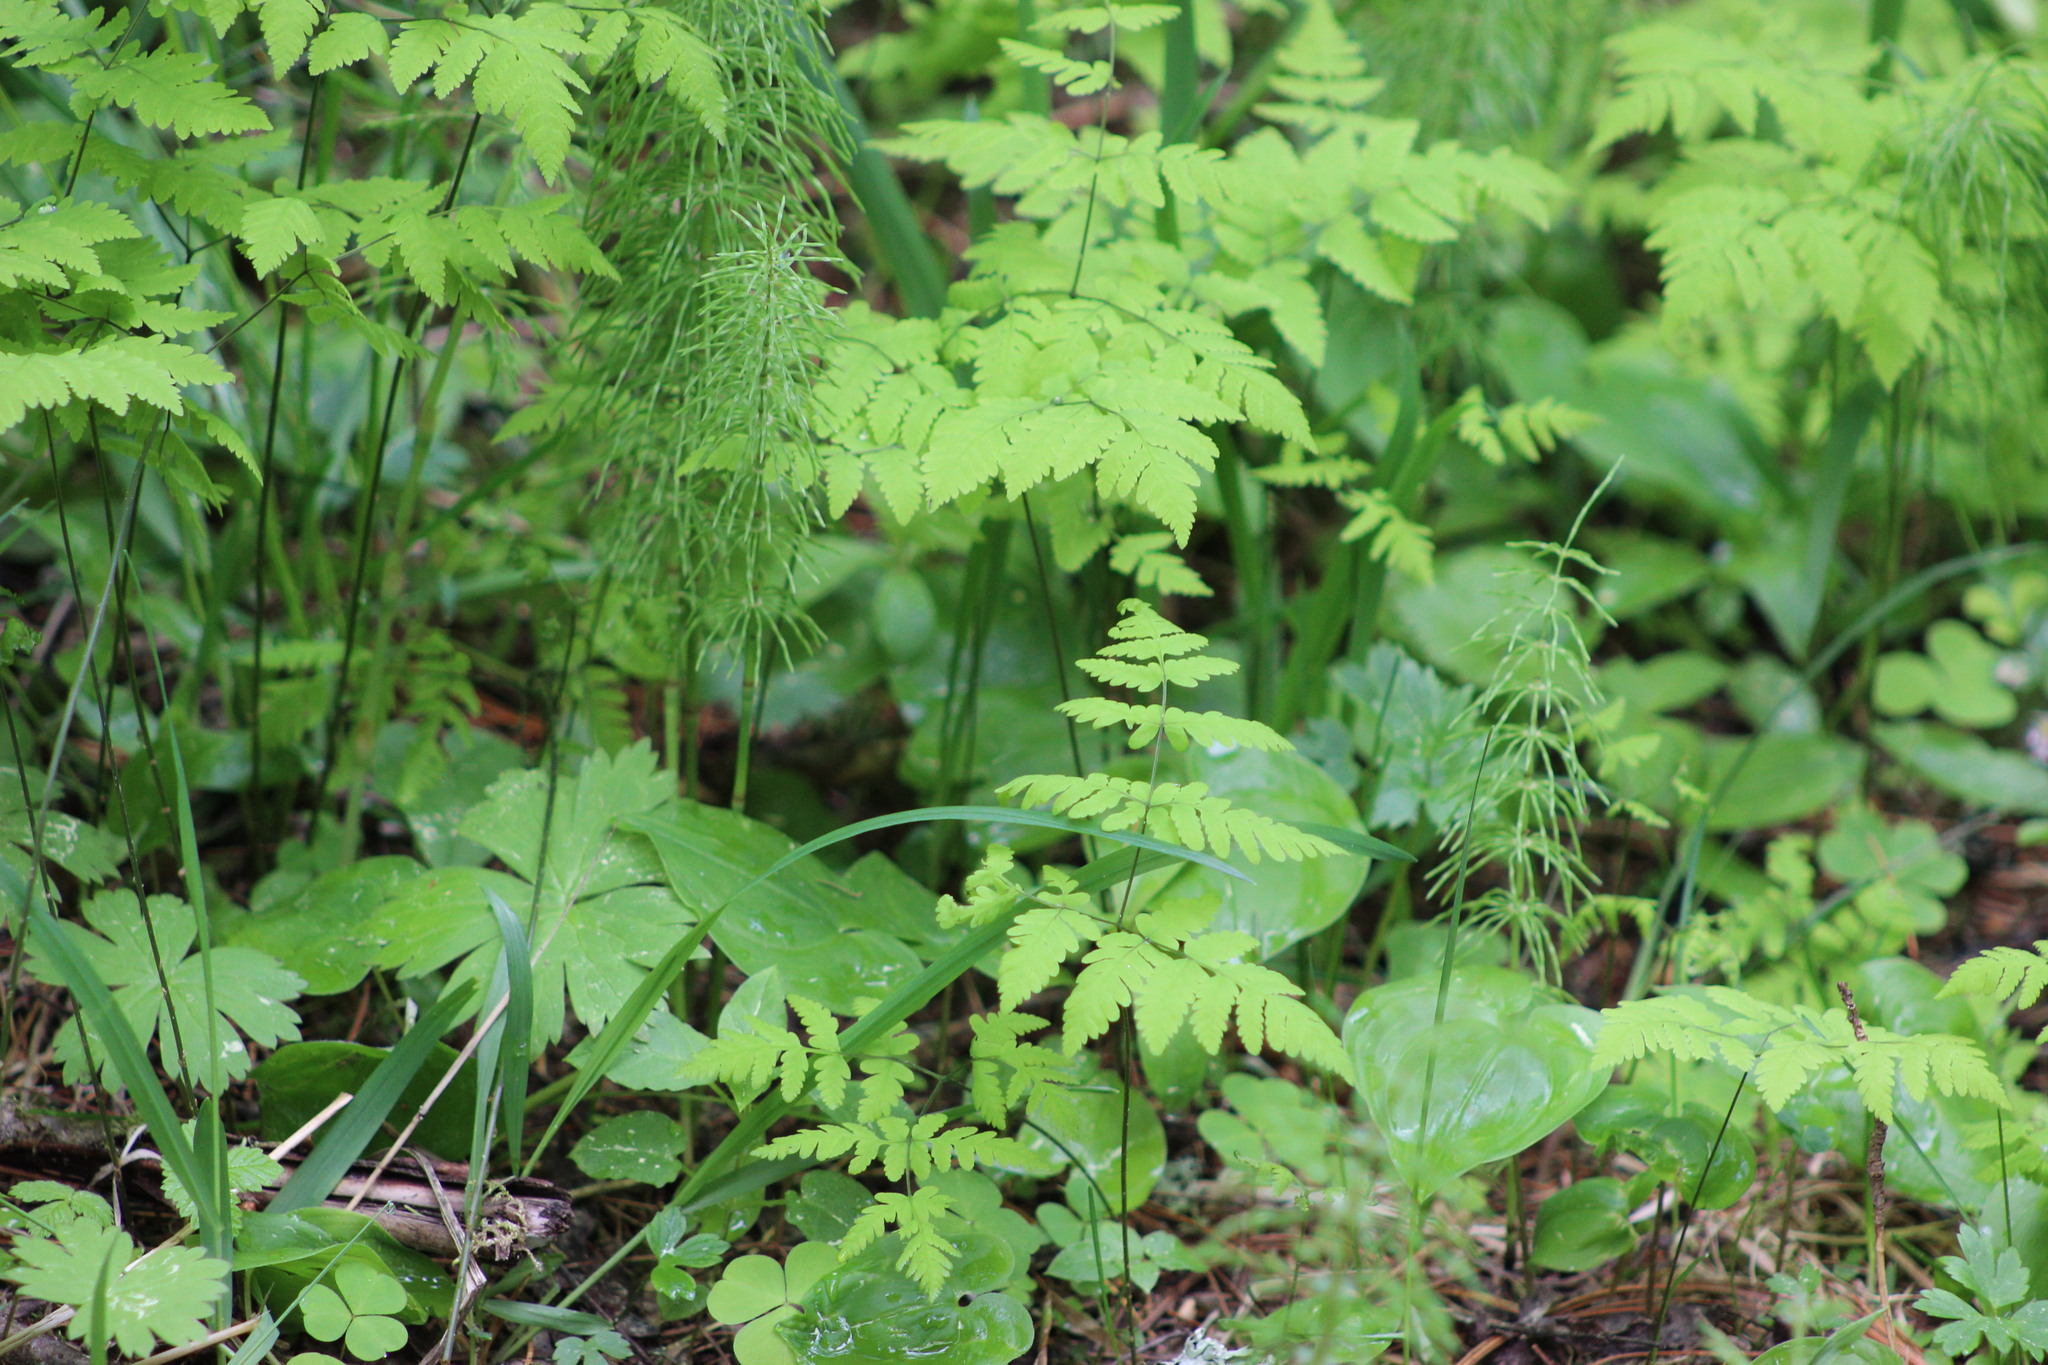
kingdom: Plantae
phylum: Tracheophyta
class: Polypodiopsida
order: Polypodiales
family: Cystopteridaceae
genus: Gymnocarpium
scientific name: Gymnocarpium dryopteris
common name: Oak fern
